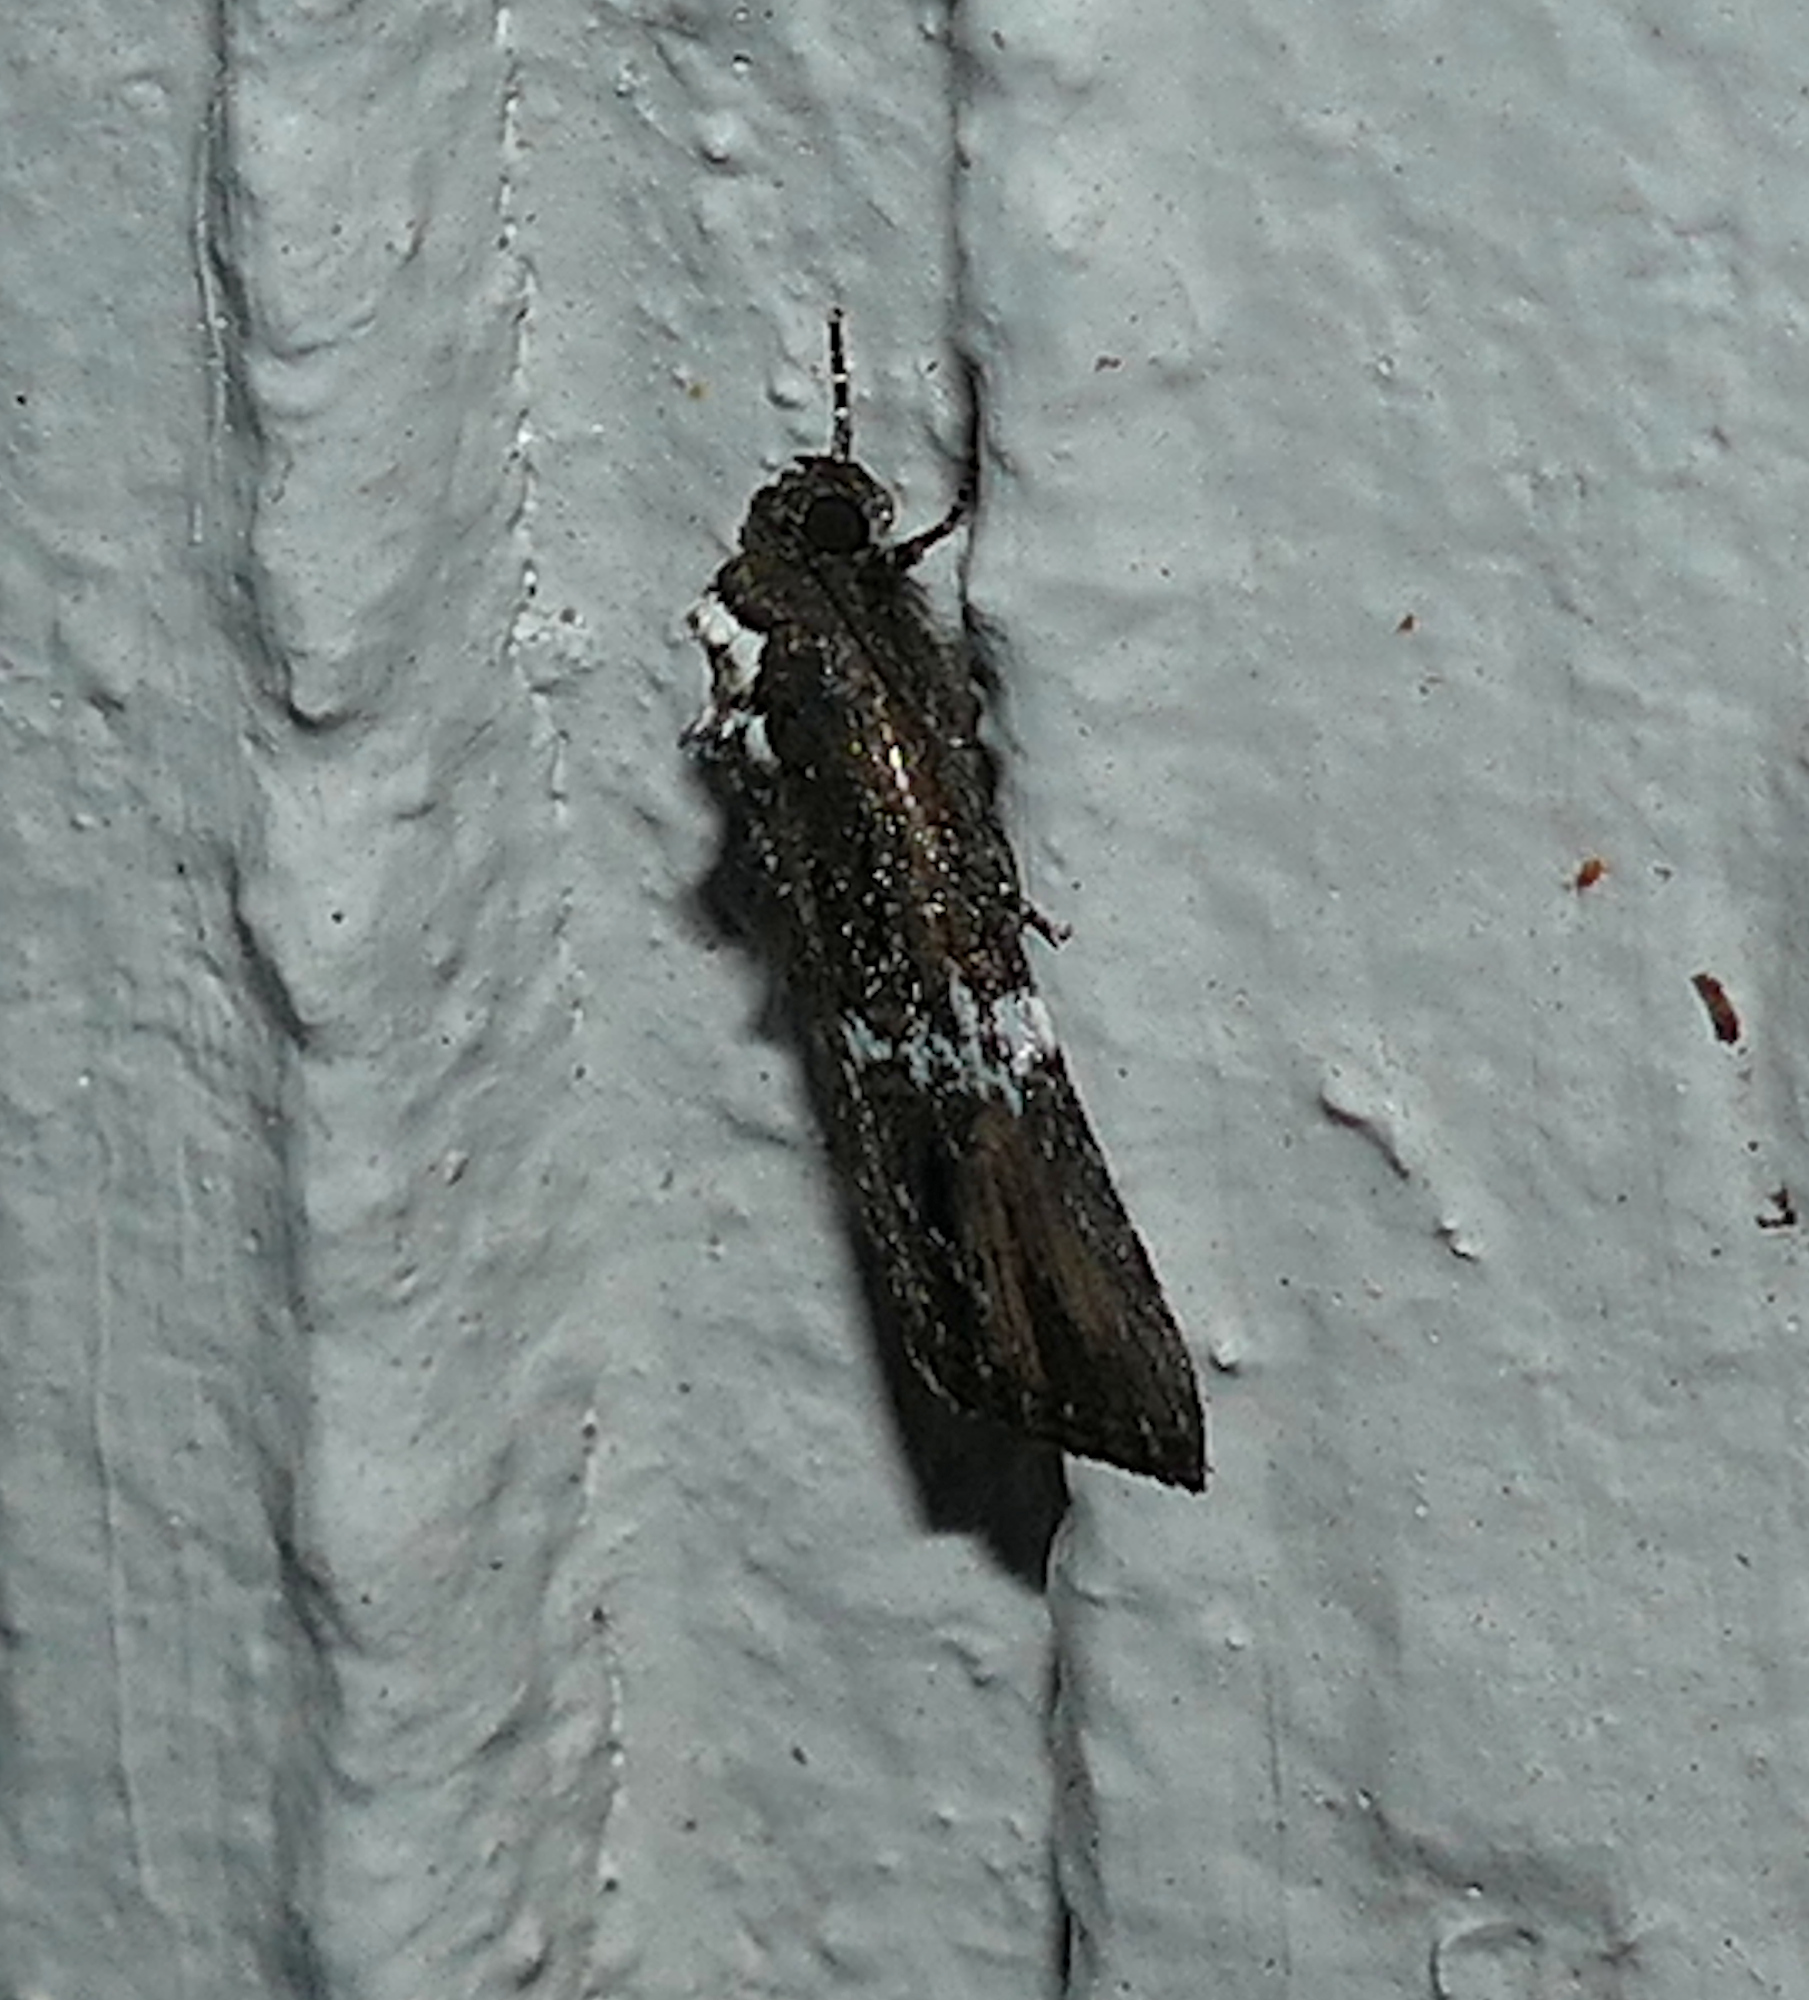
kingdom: Animalia
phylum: Arthropoda
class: Insecta
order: Lepidoptera
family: Noctuidae
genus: Bryolymnia
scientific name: Bryolymnia semifascia
